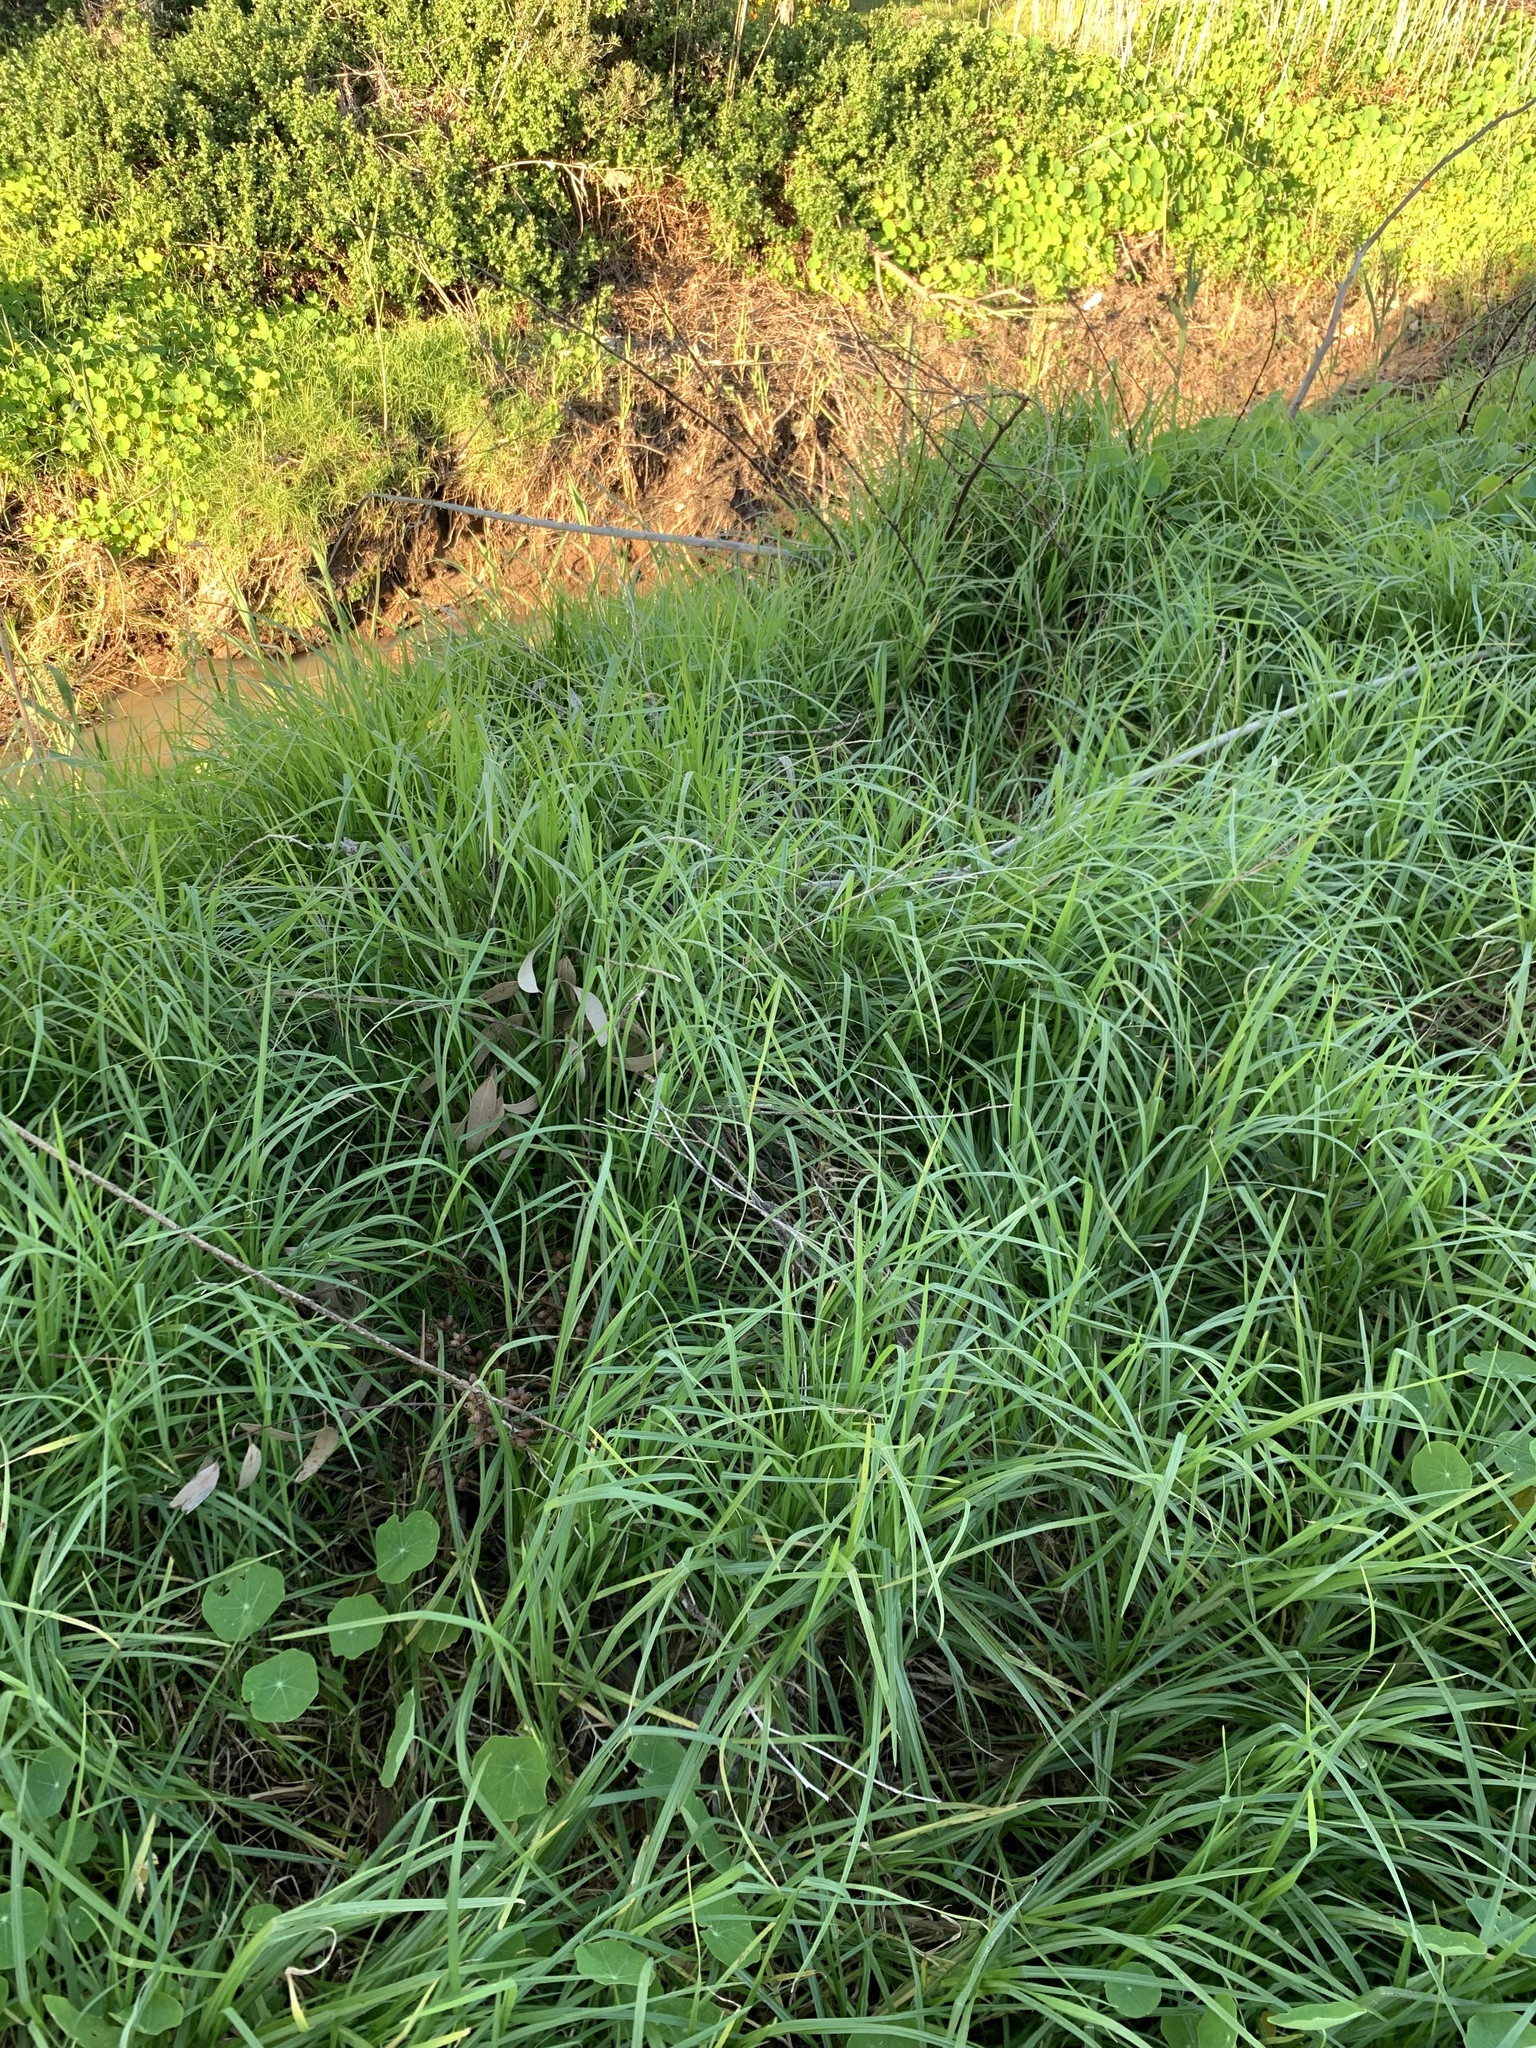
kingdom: Plantae
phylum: Tracheophyta
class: Liliopsida
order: Poales
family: Poaceae
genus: Cenchrus
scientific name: Cenchrus clandestinus
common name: Kikuyugrass
